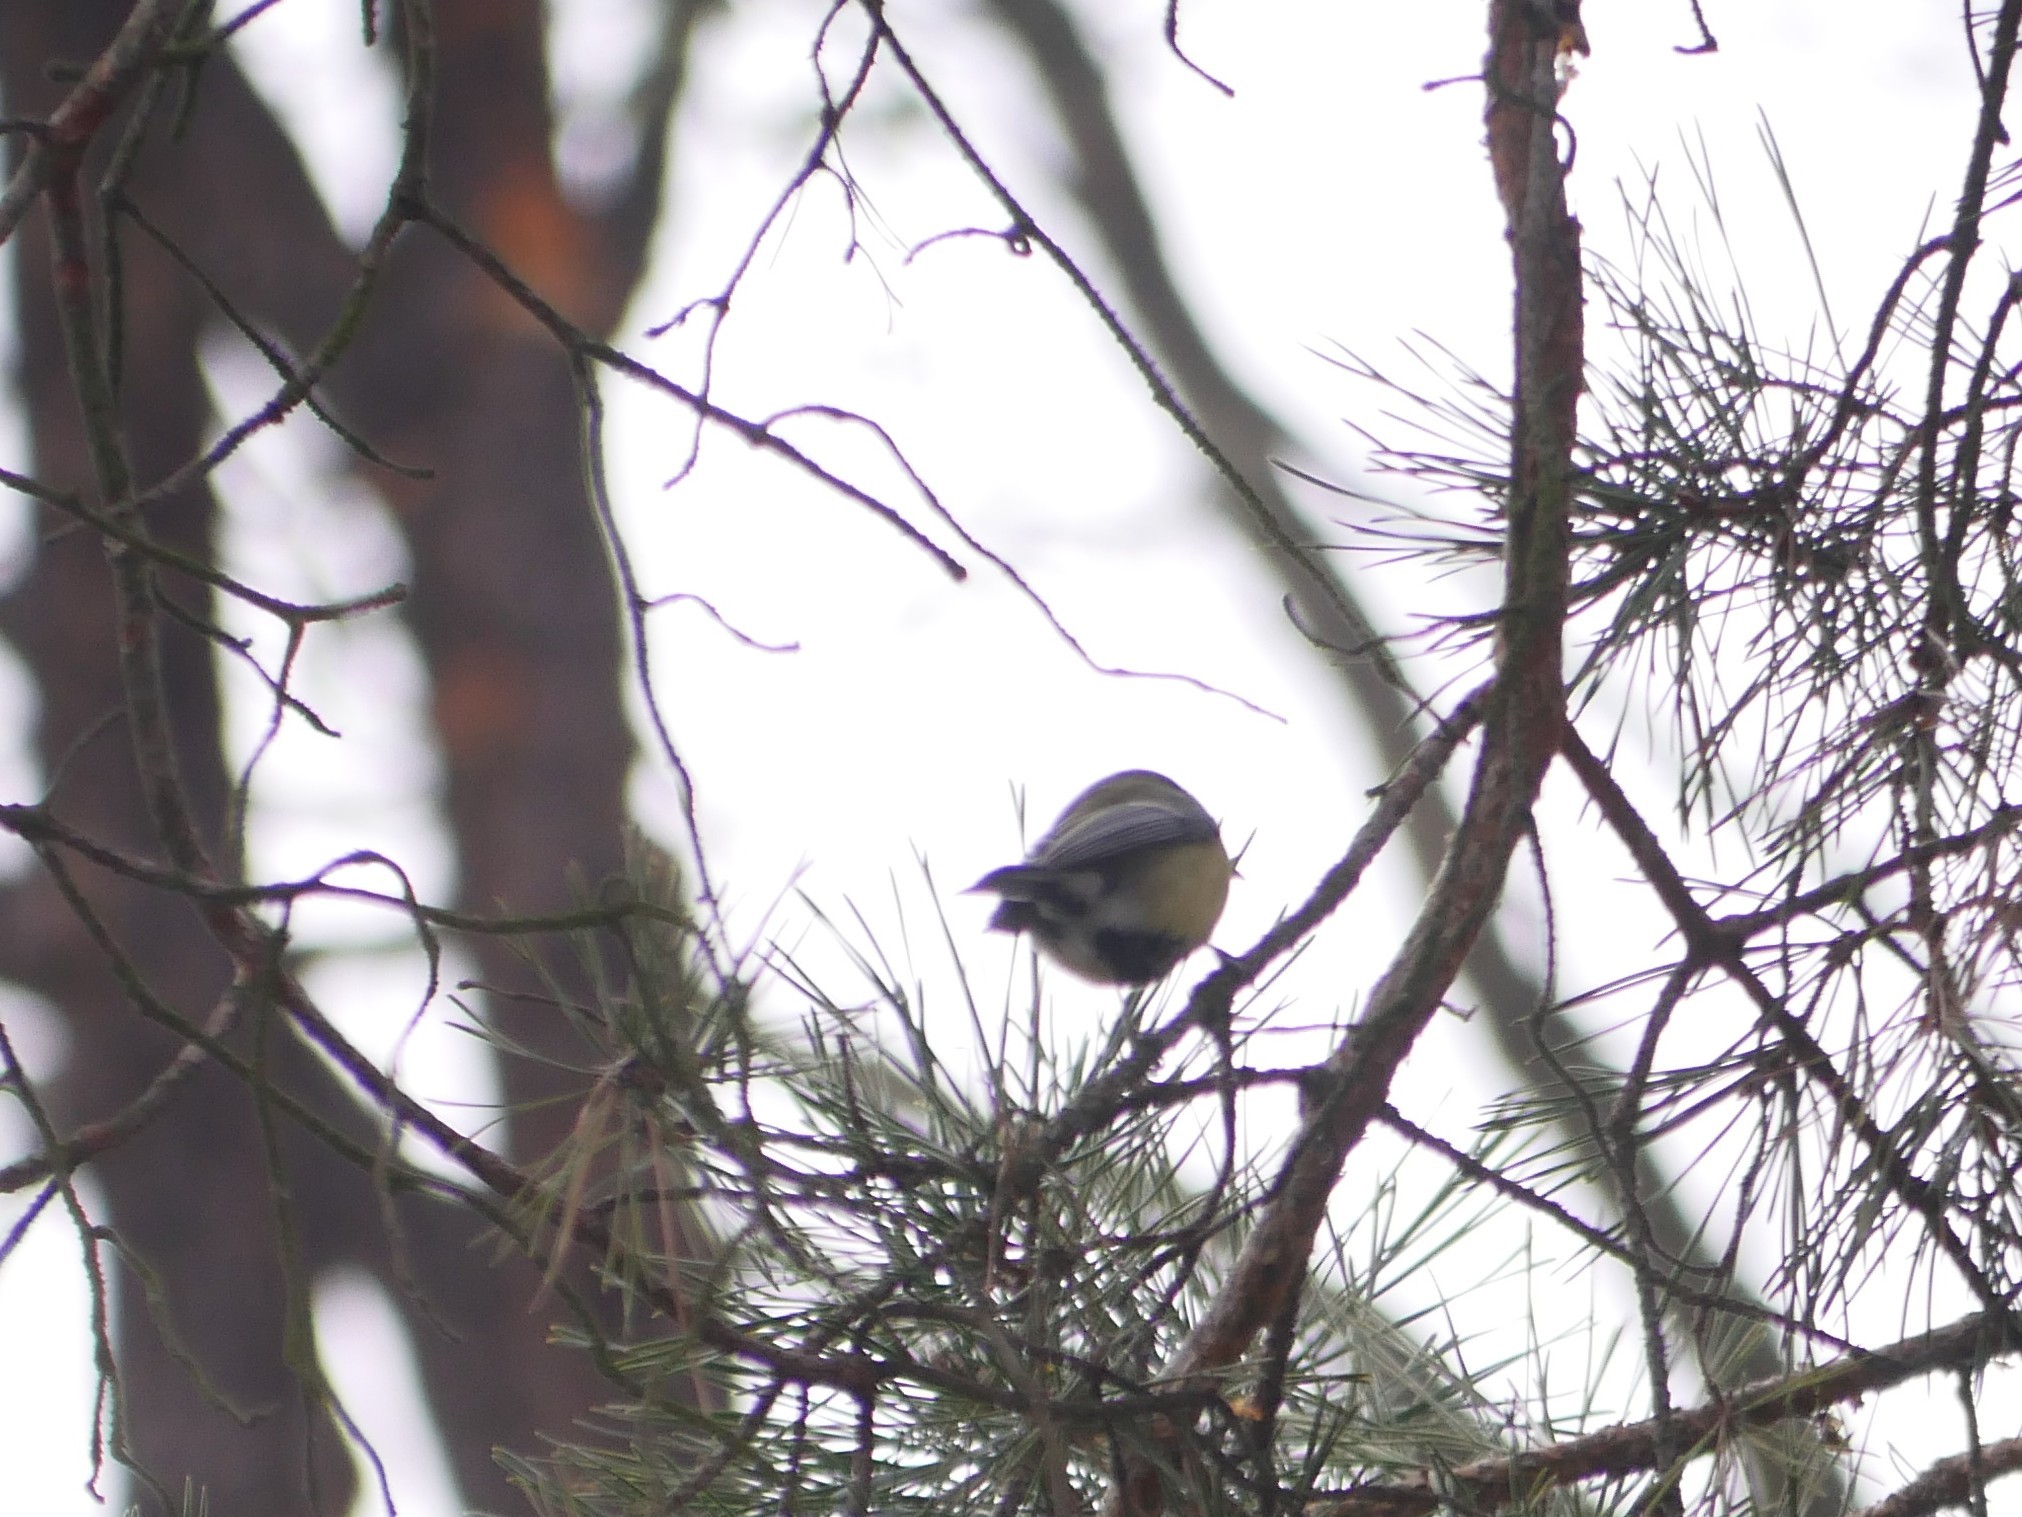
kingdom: Animalia
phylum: Chordata
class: Aves
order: Passeriformes
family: Paridae
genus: Parus
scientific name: Parus major
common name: Great tit
